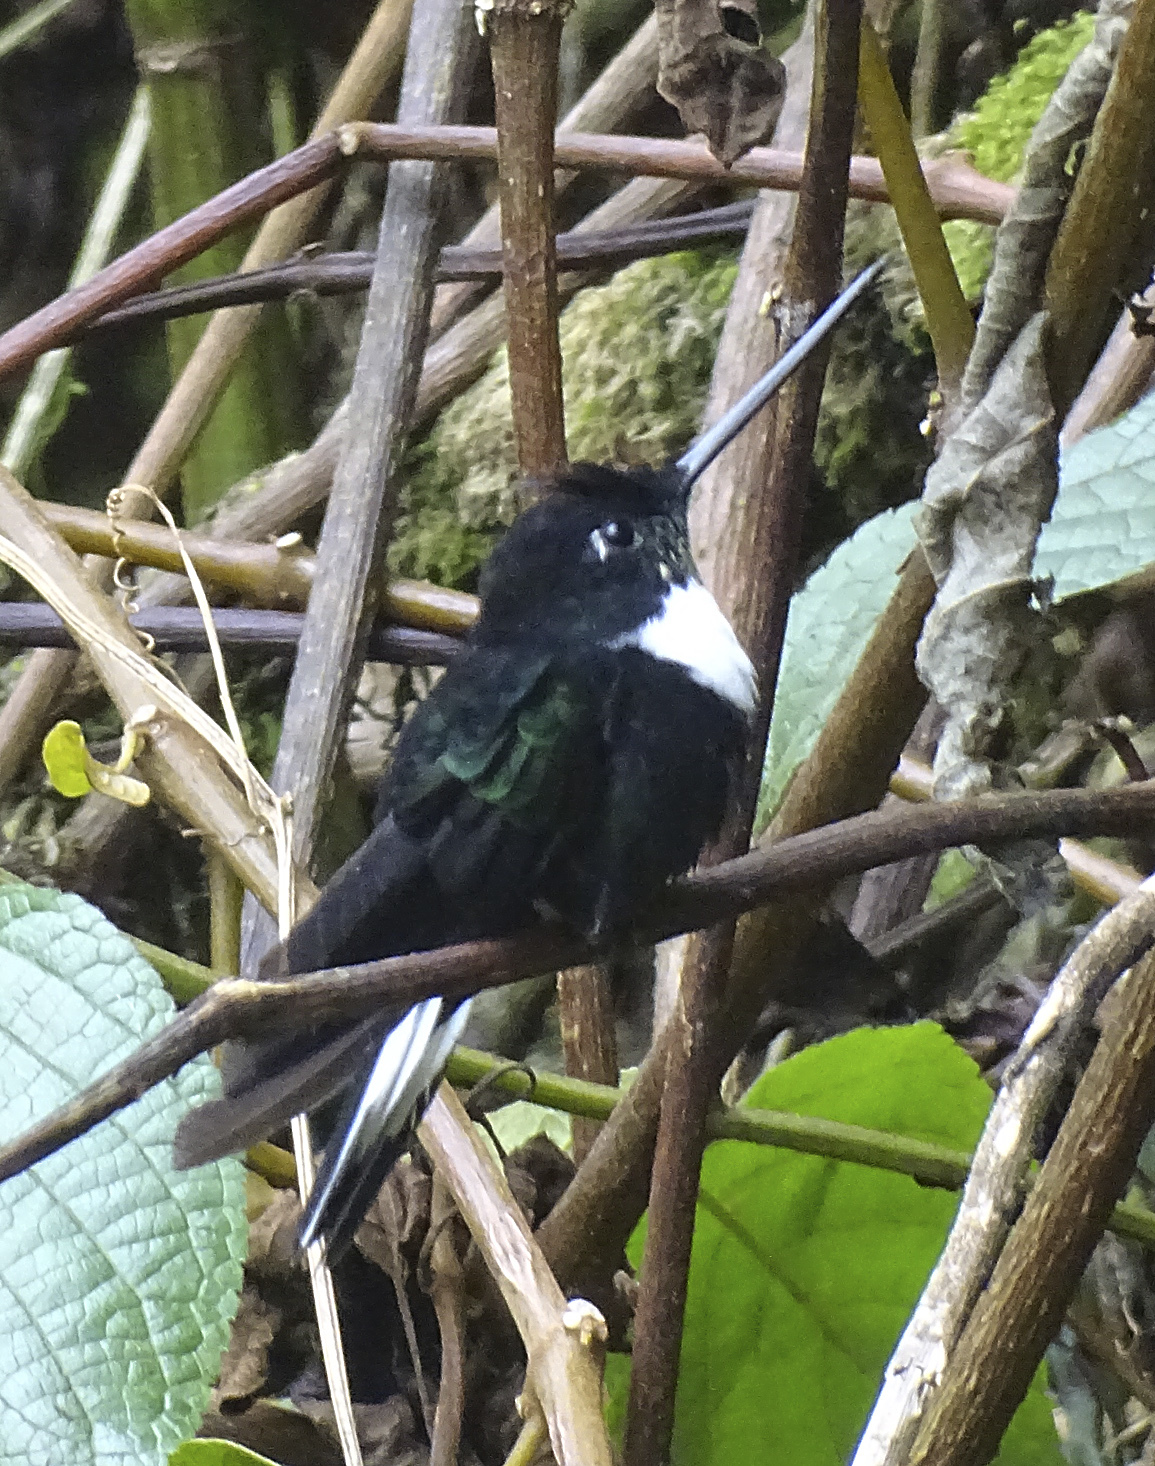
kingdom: Animalia
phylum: Chordata
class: Aves
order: Apodiformes
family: Trochilidae
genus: Coeligena
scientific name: Coeligena torquata
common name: Collared inca
